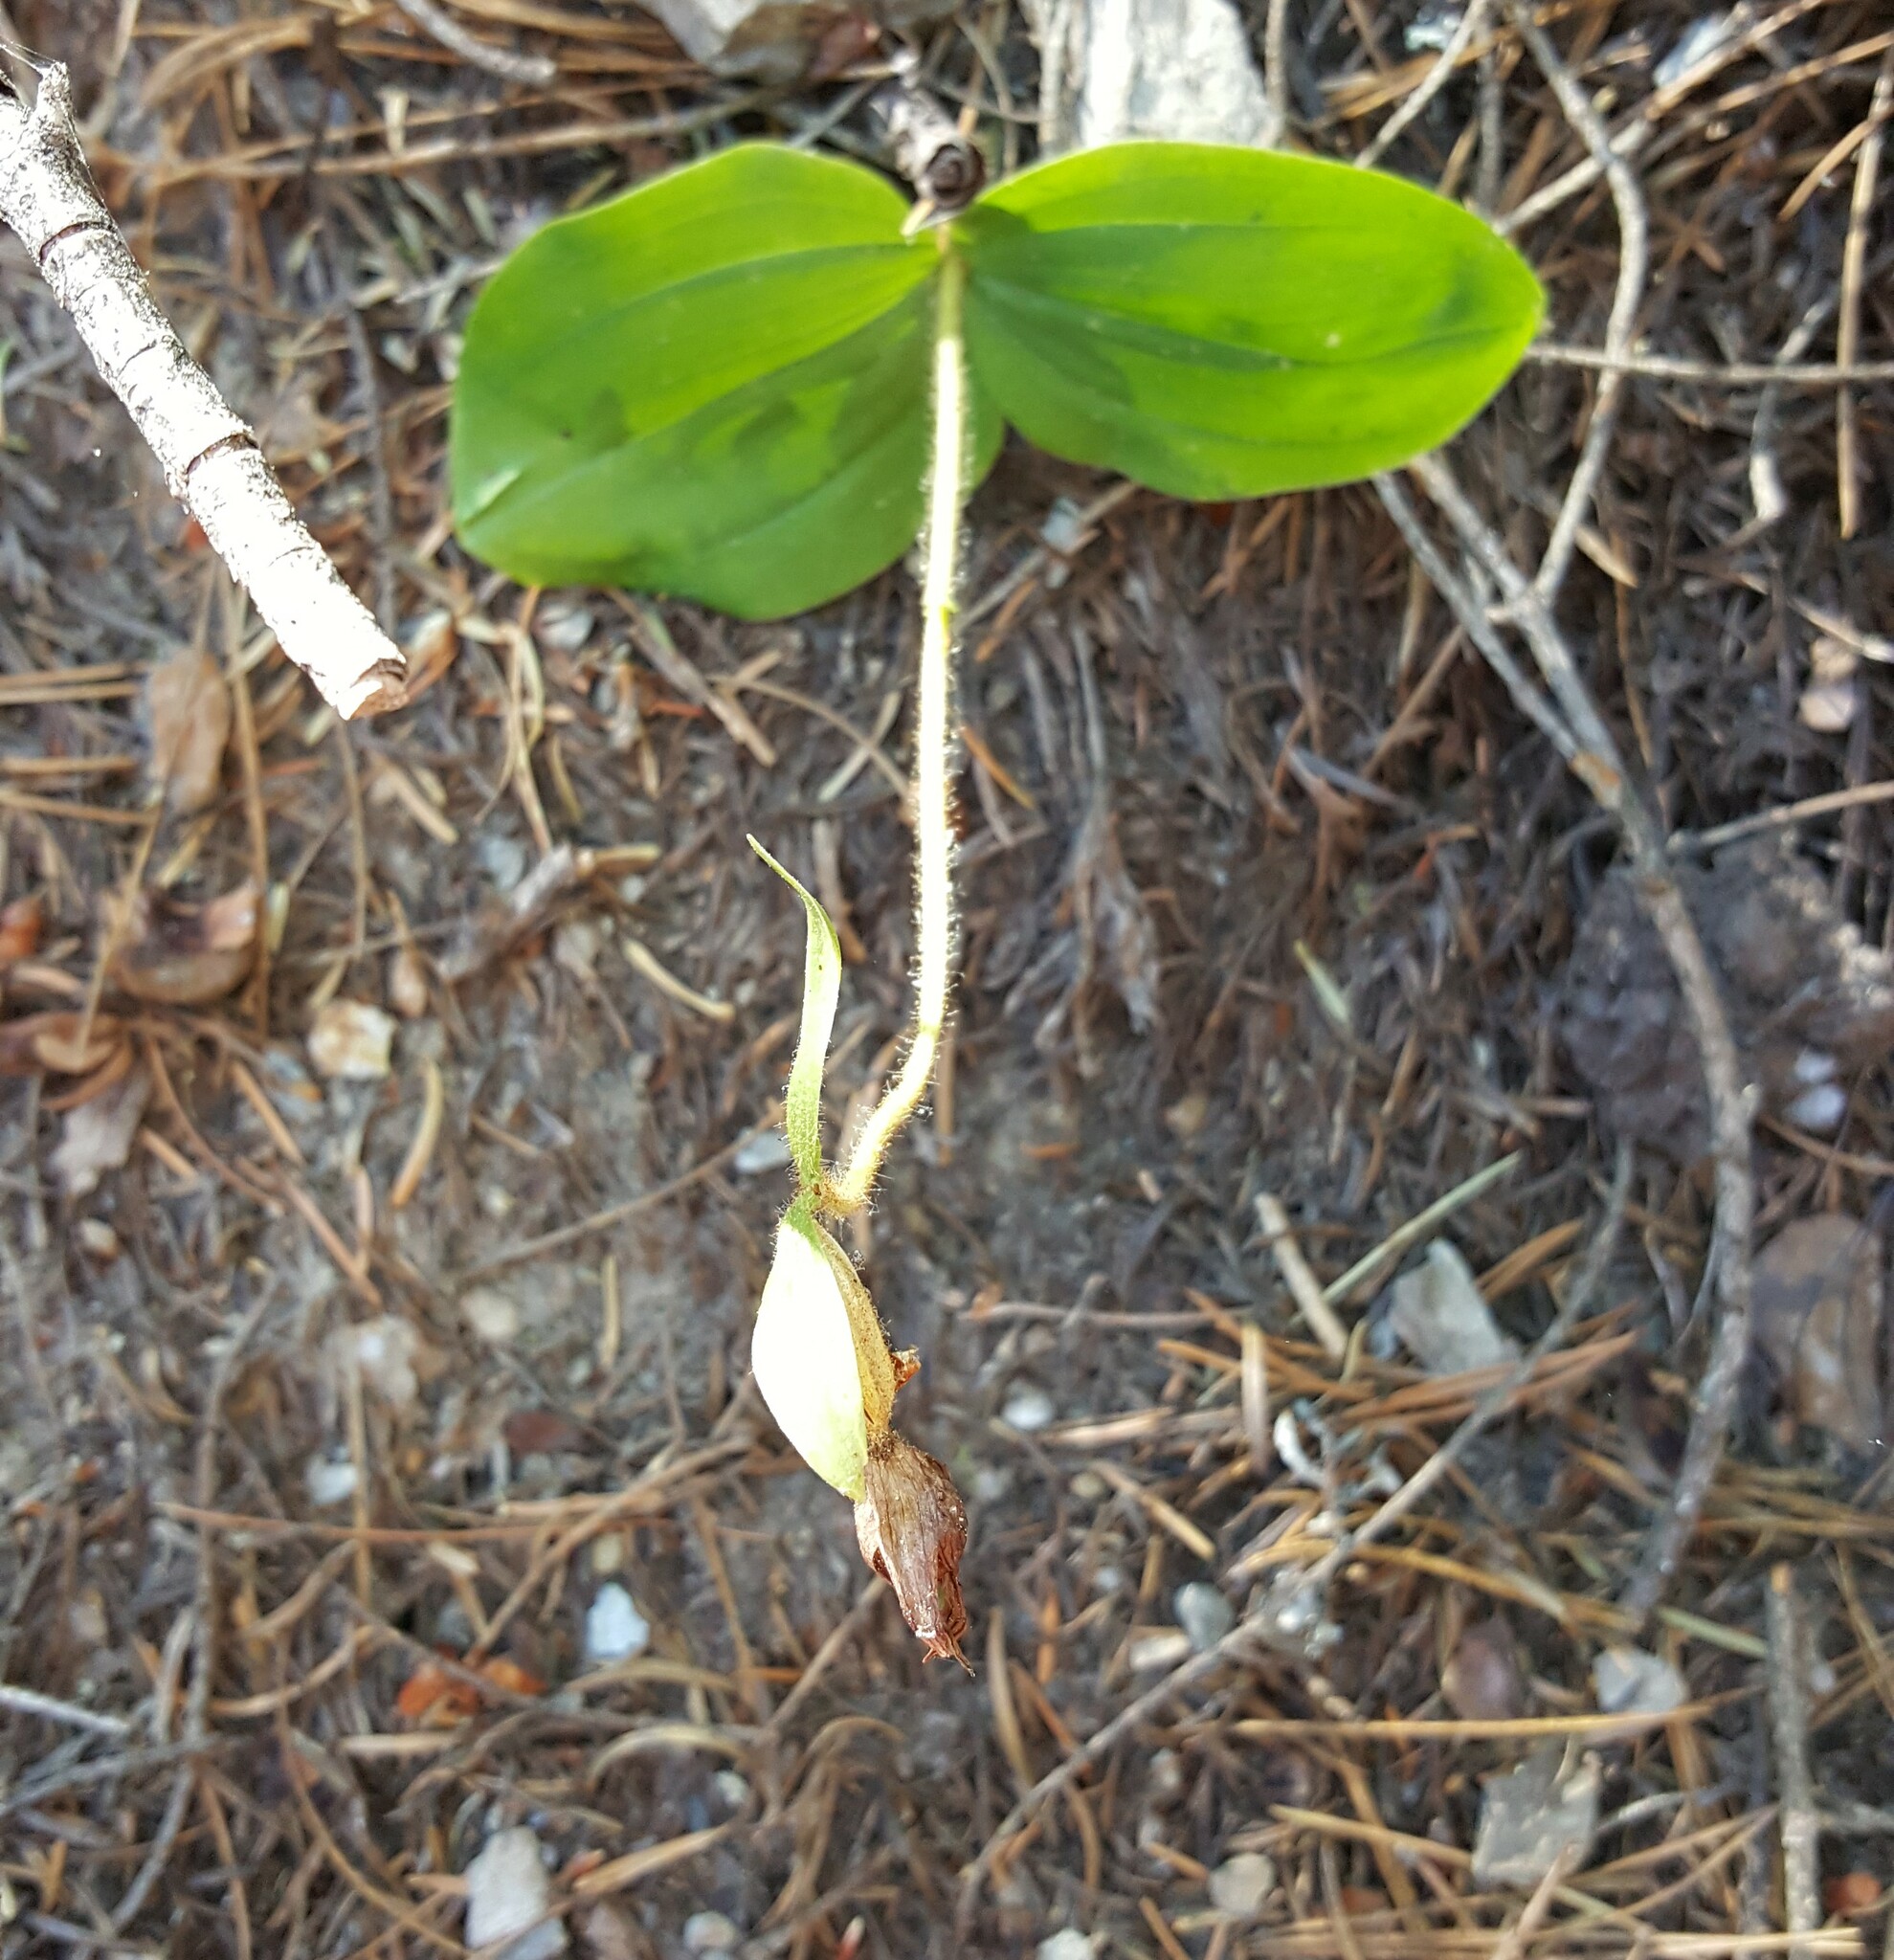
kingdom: Plantae
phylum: Tracheophyta
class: Liliopsida
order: Asparagales
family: Orchidaceae
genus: Cypripedium
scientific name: Cypripedium fasciculatum
